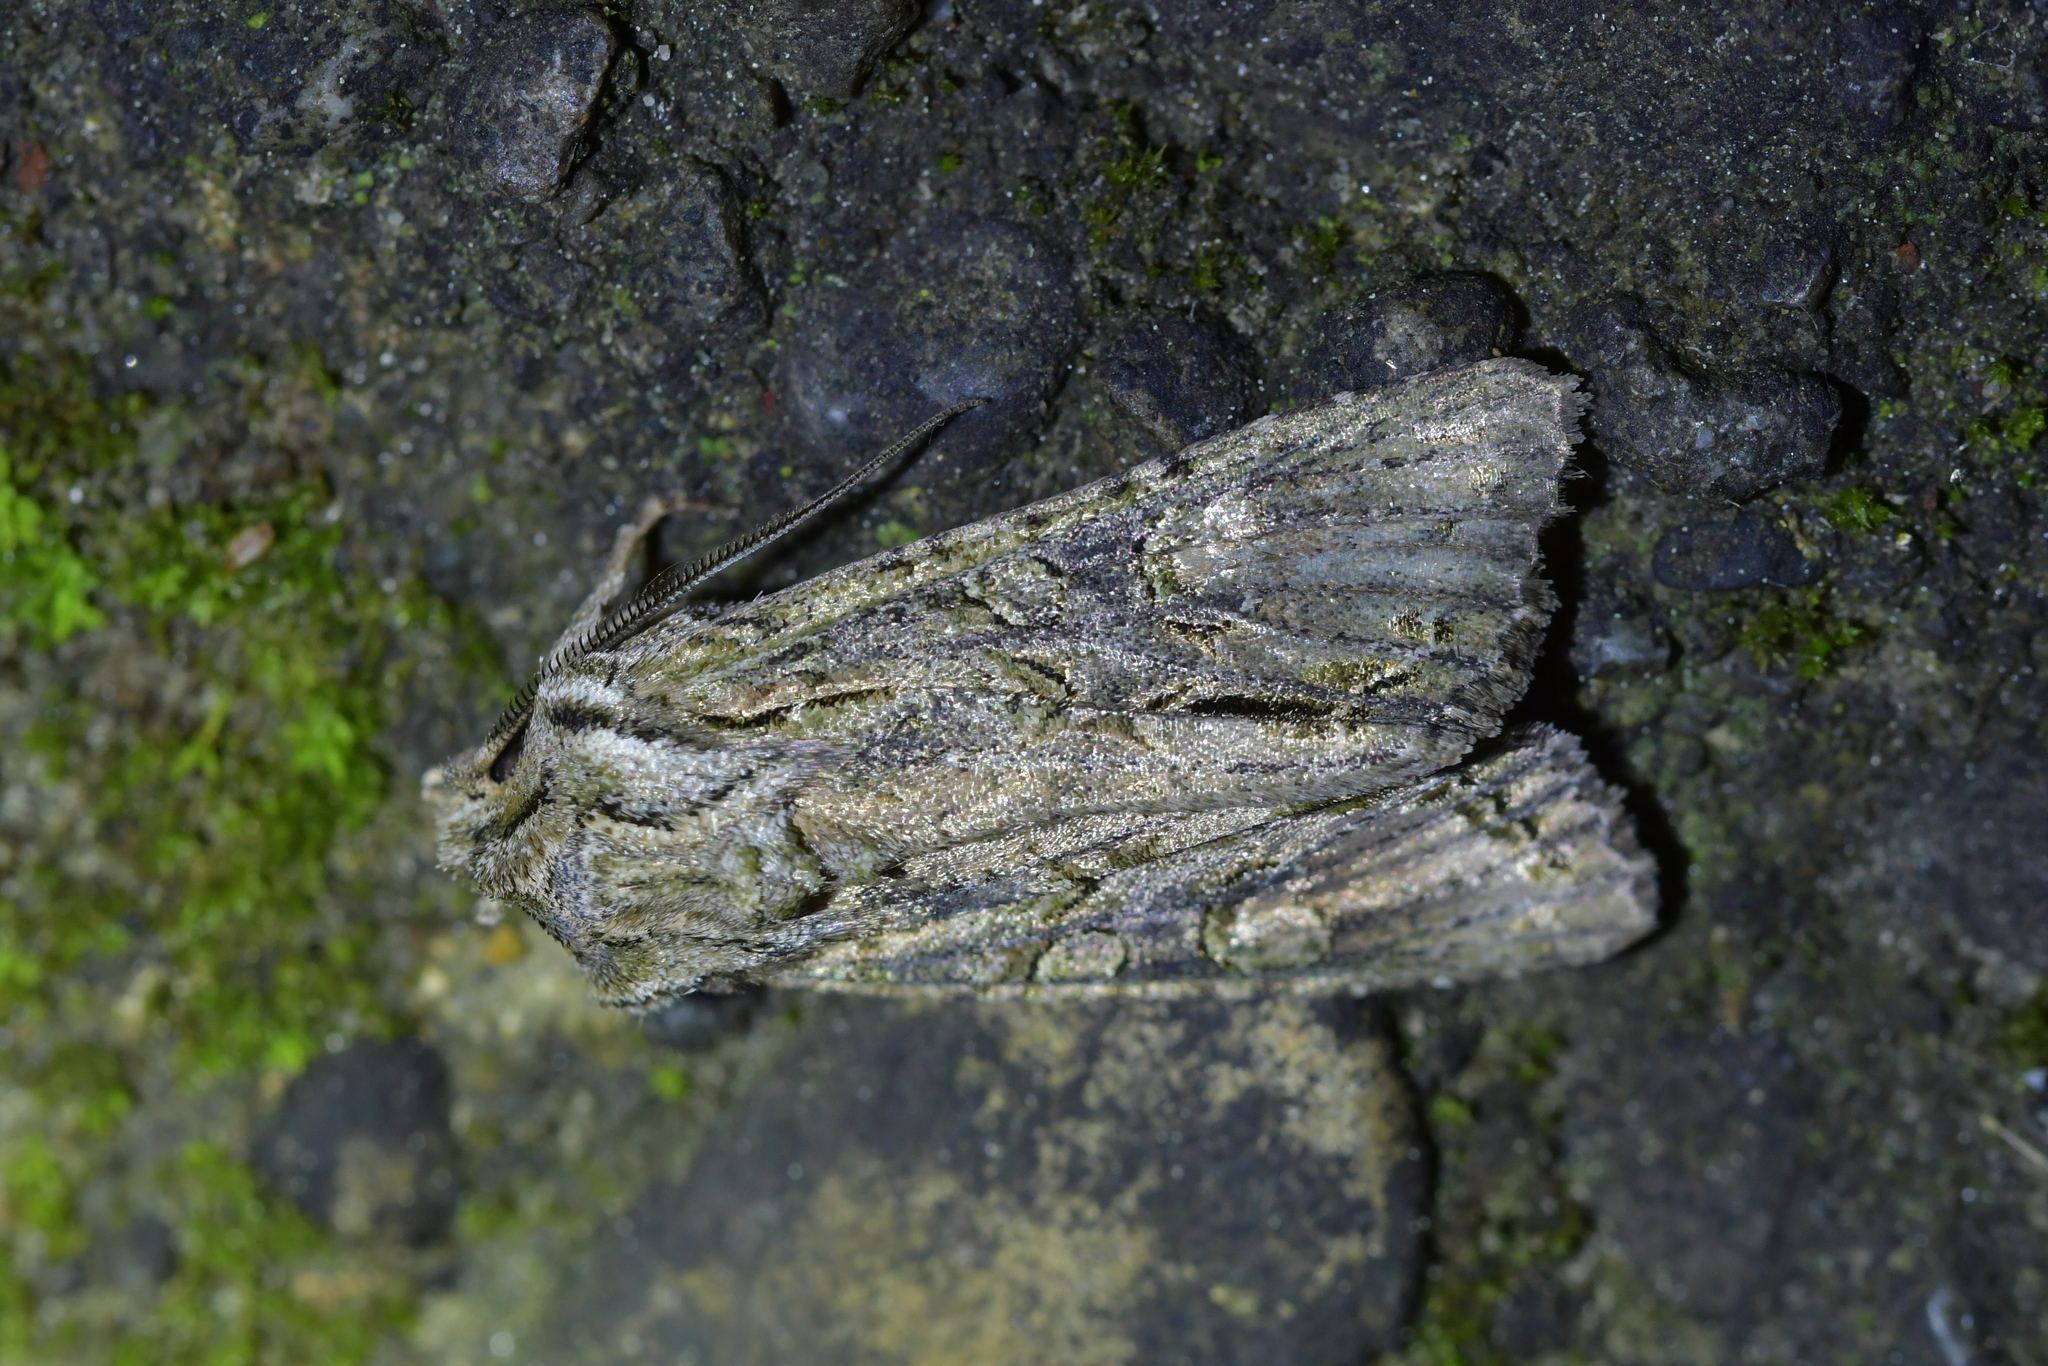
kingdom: Animalia
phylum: Arthropoda
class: Insecta
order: Lepidoptera
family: Noctuidae
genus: Ichneutica
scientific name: Ichneutica mutans
